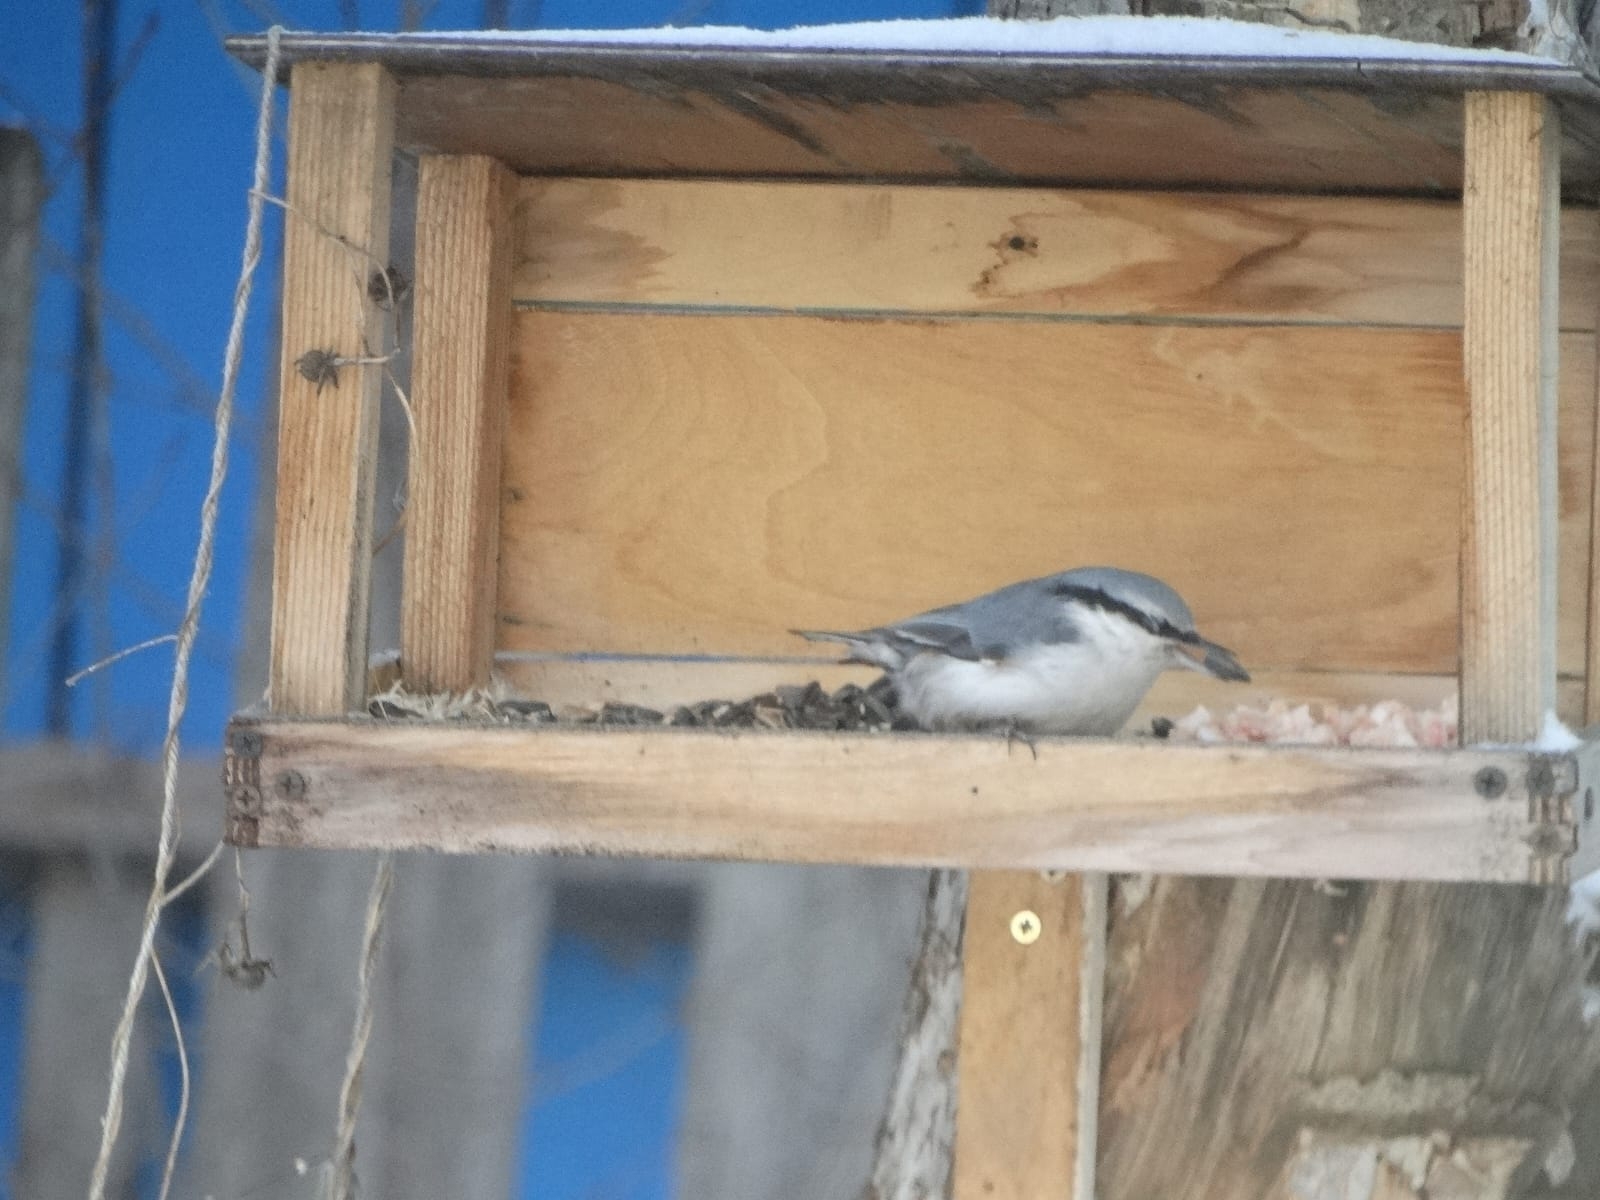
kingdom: Animalia
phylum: Chordata
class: Aves
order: Passeriformes
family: Sittidae
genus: Sitta
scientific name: Sitta europaea
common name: Eurasian nuthatch
